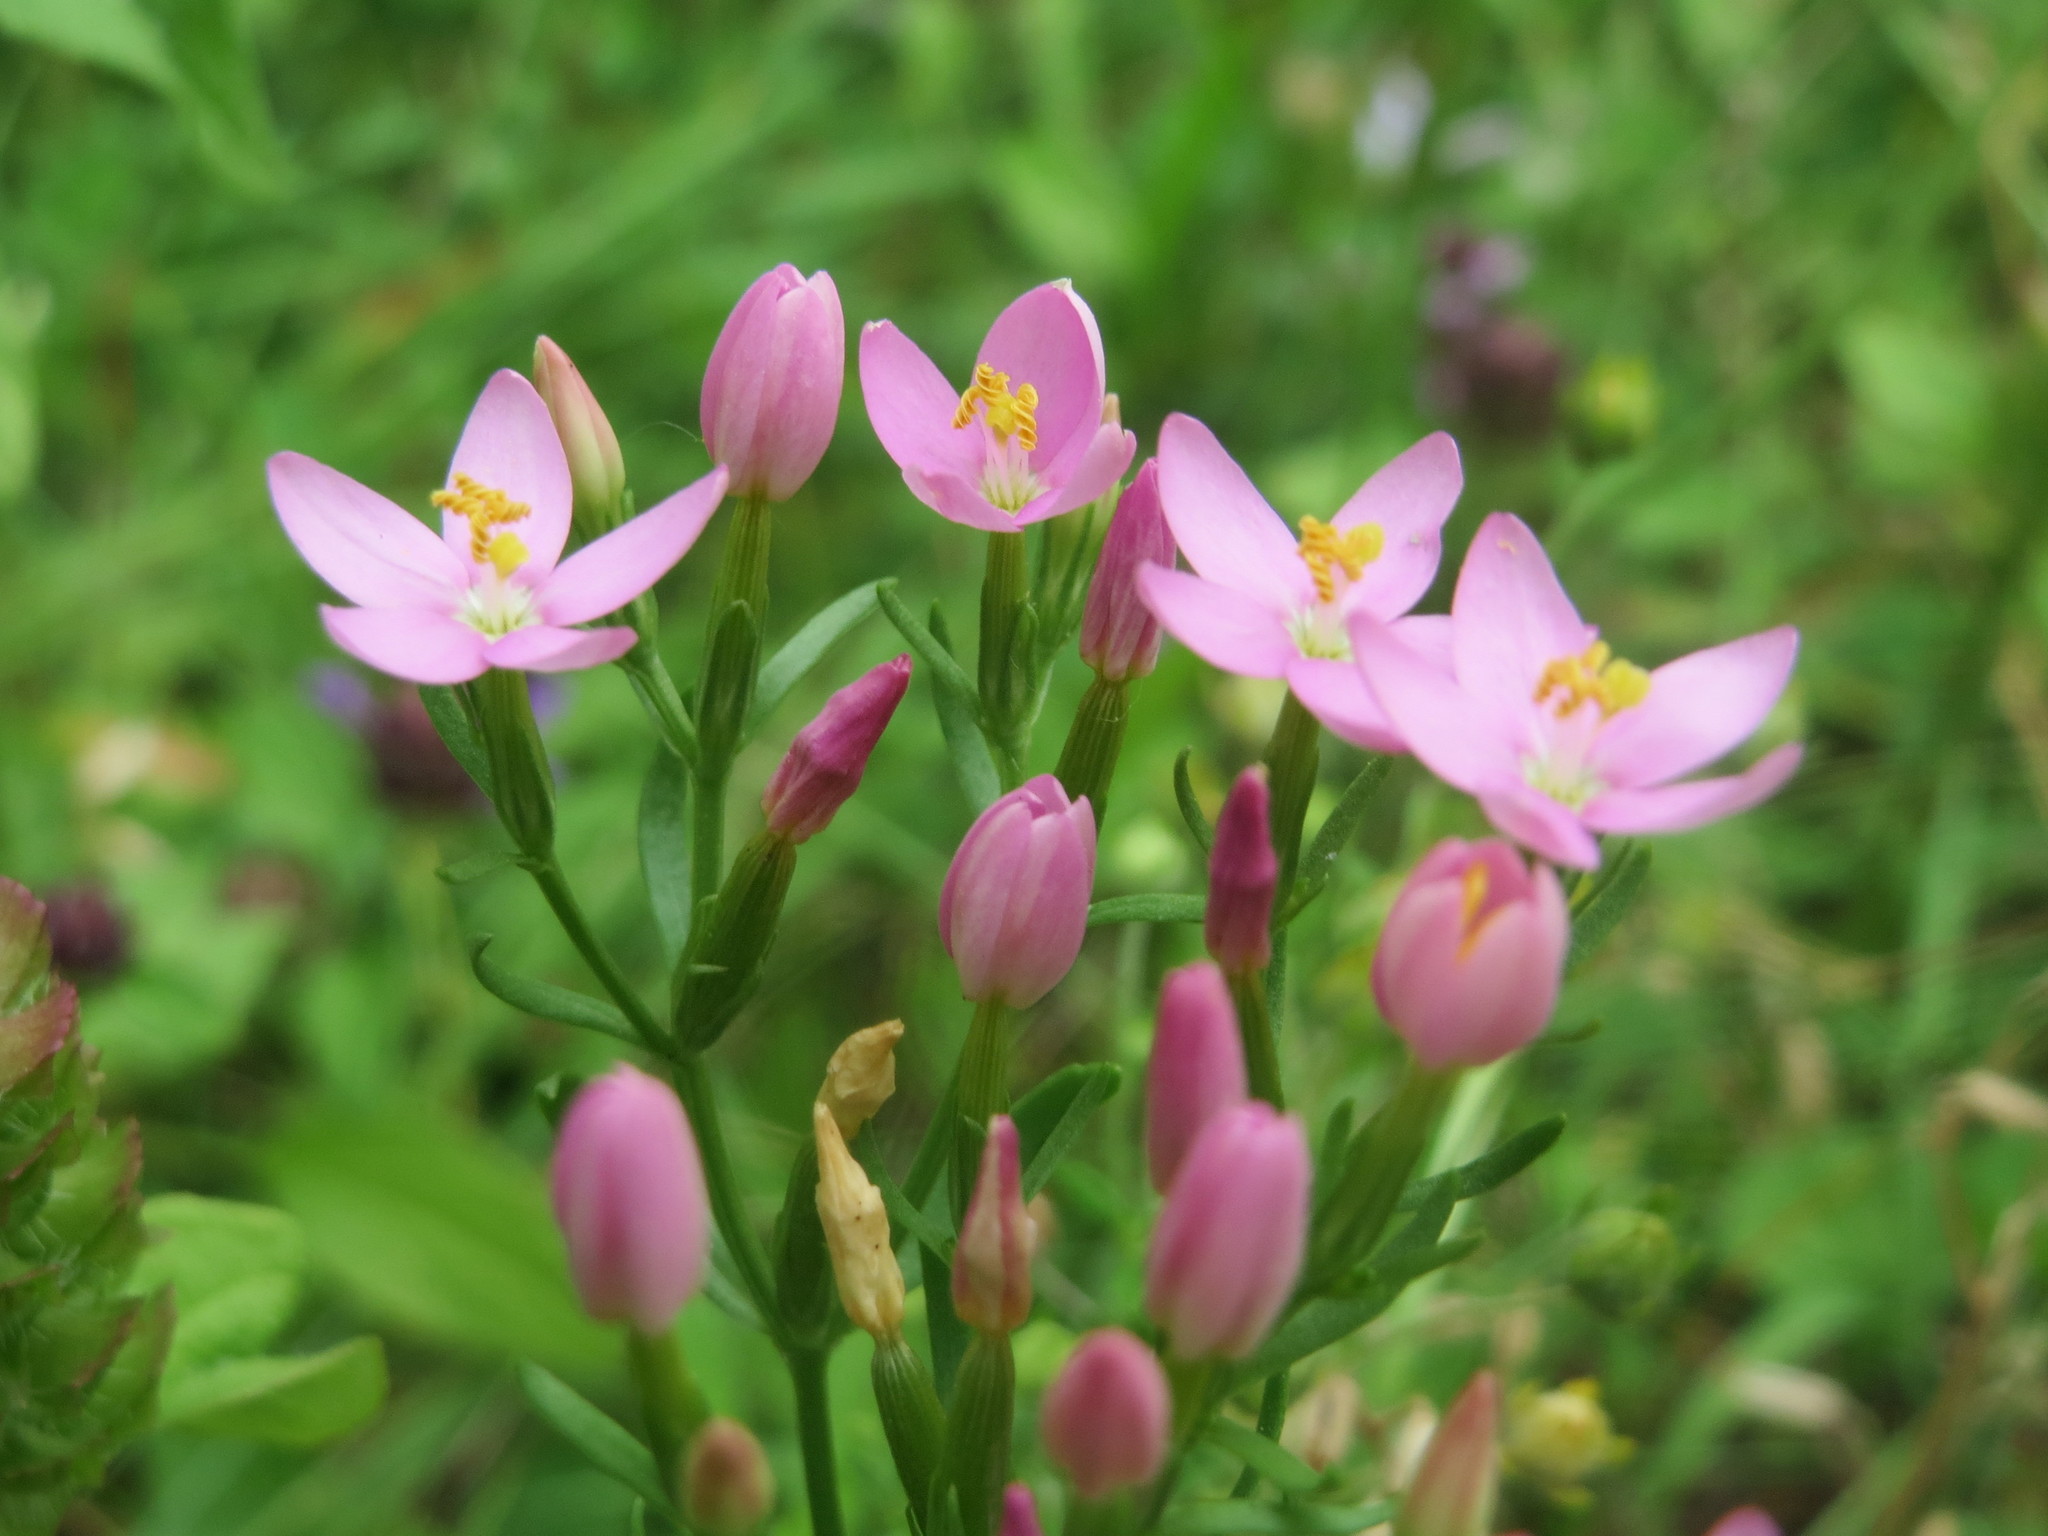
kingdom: Plantae
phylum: Tracheophyta
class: Magnoliopsida
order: Gentianales
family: Gentianaceae
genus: Centaurium
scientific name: Centaurium erythraea
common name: Common centaury
